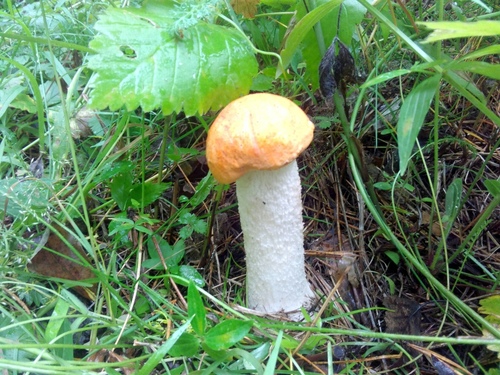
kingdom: Fungi
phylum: Basidiomycota
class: Agaricomycetes
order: Boletales
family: Boletaceae
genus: Leccinum
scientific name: Leccinum albostipitatum
